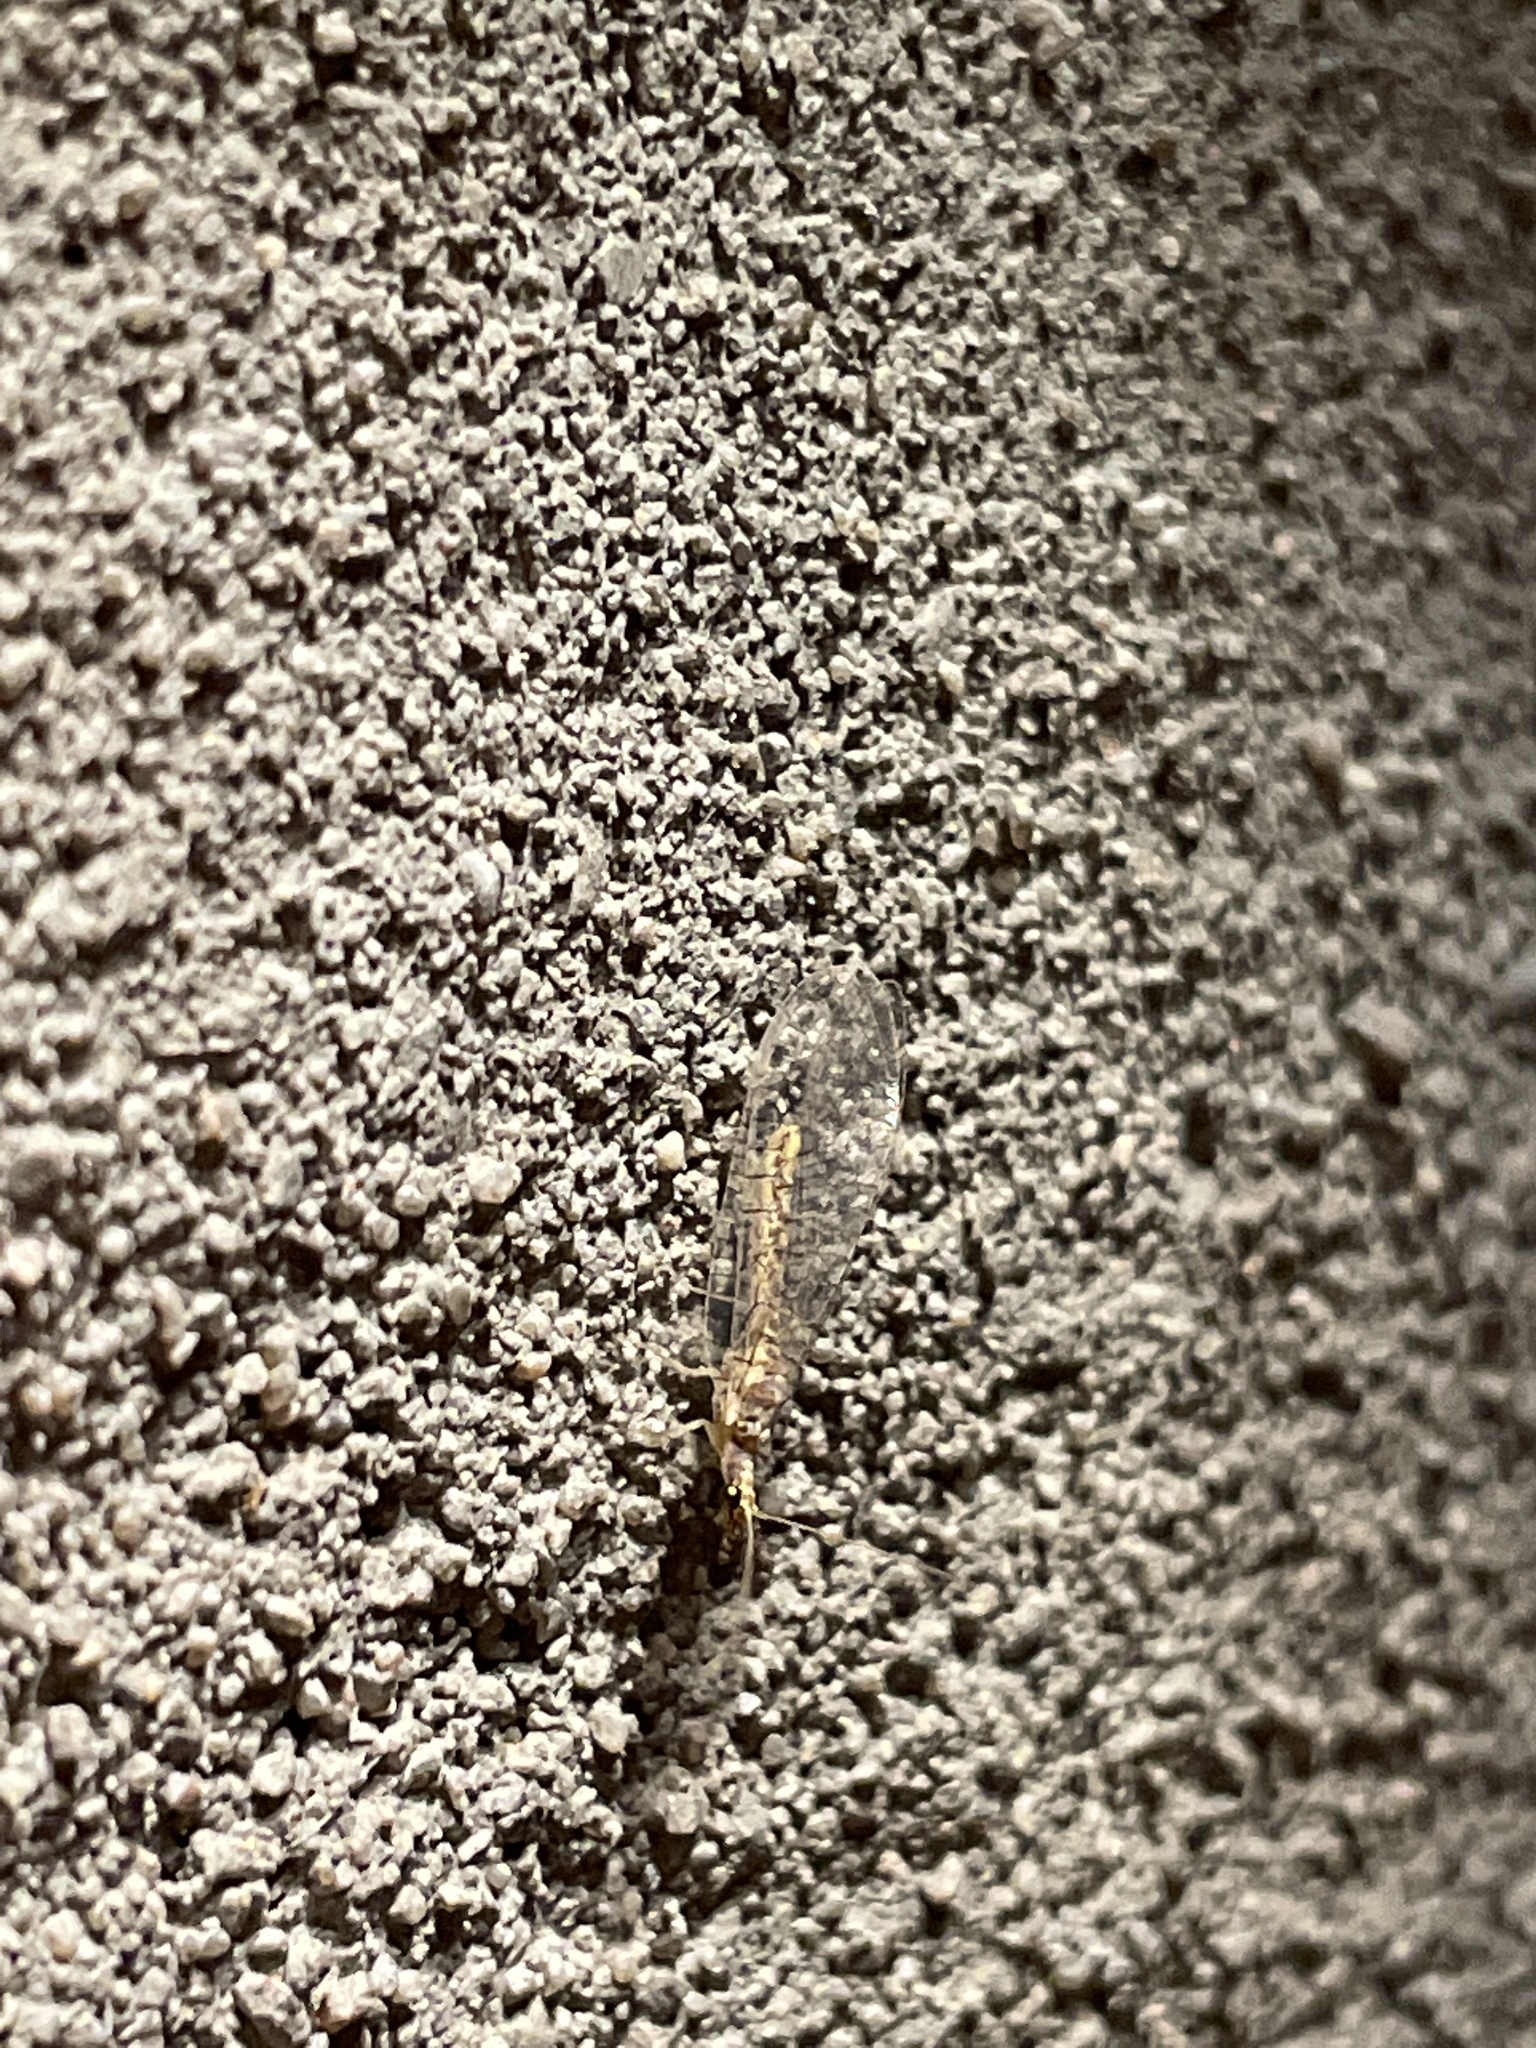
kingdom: Animalia
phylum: Arthropoda
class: Insecta
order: Neuroptera
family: Chrysopidae
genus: Eremochrysa
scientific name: Eremochrysa
